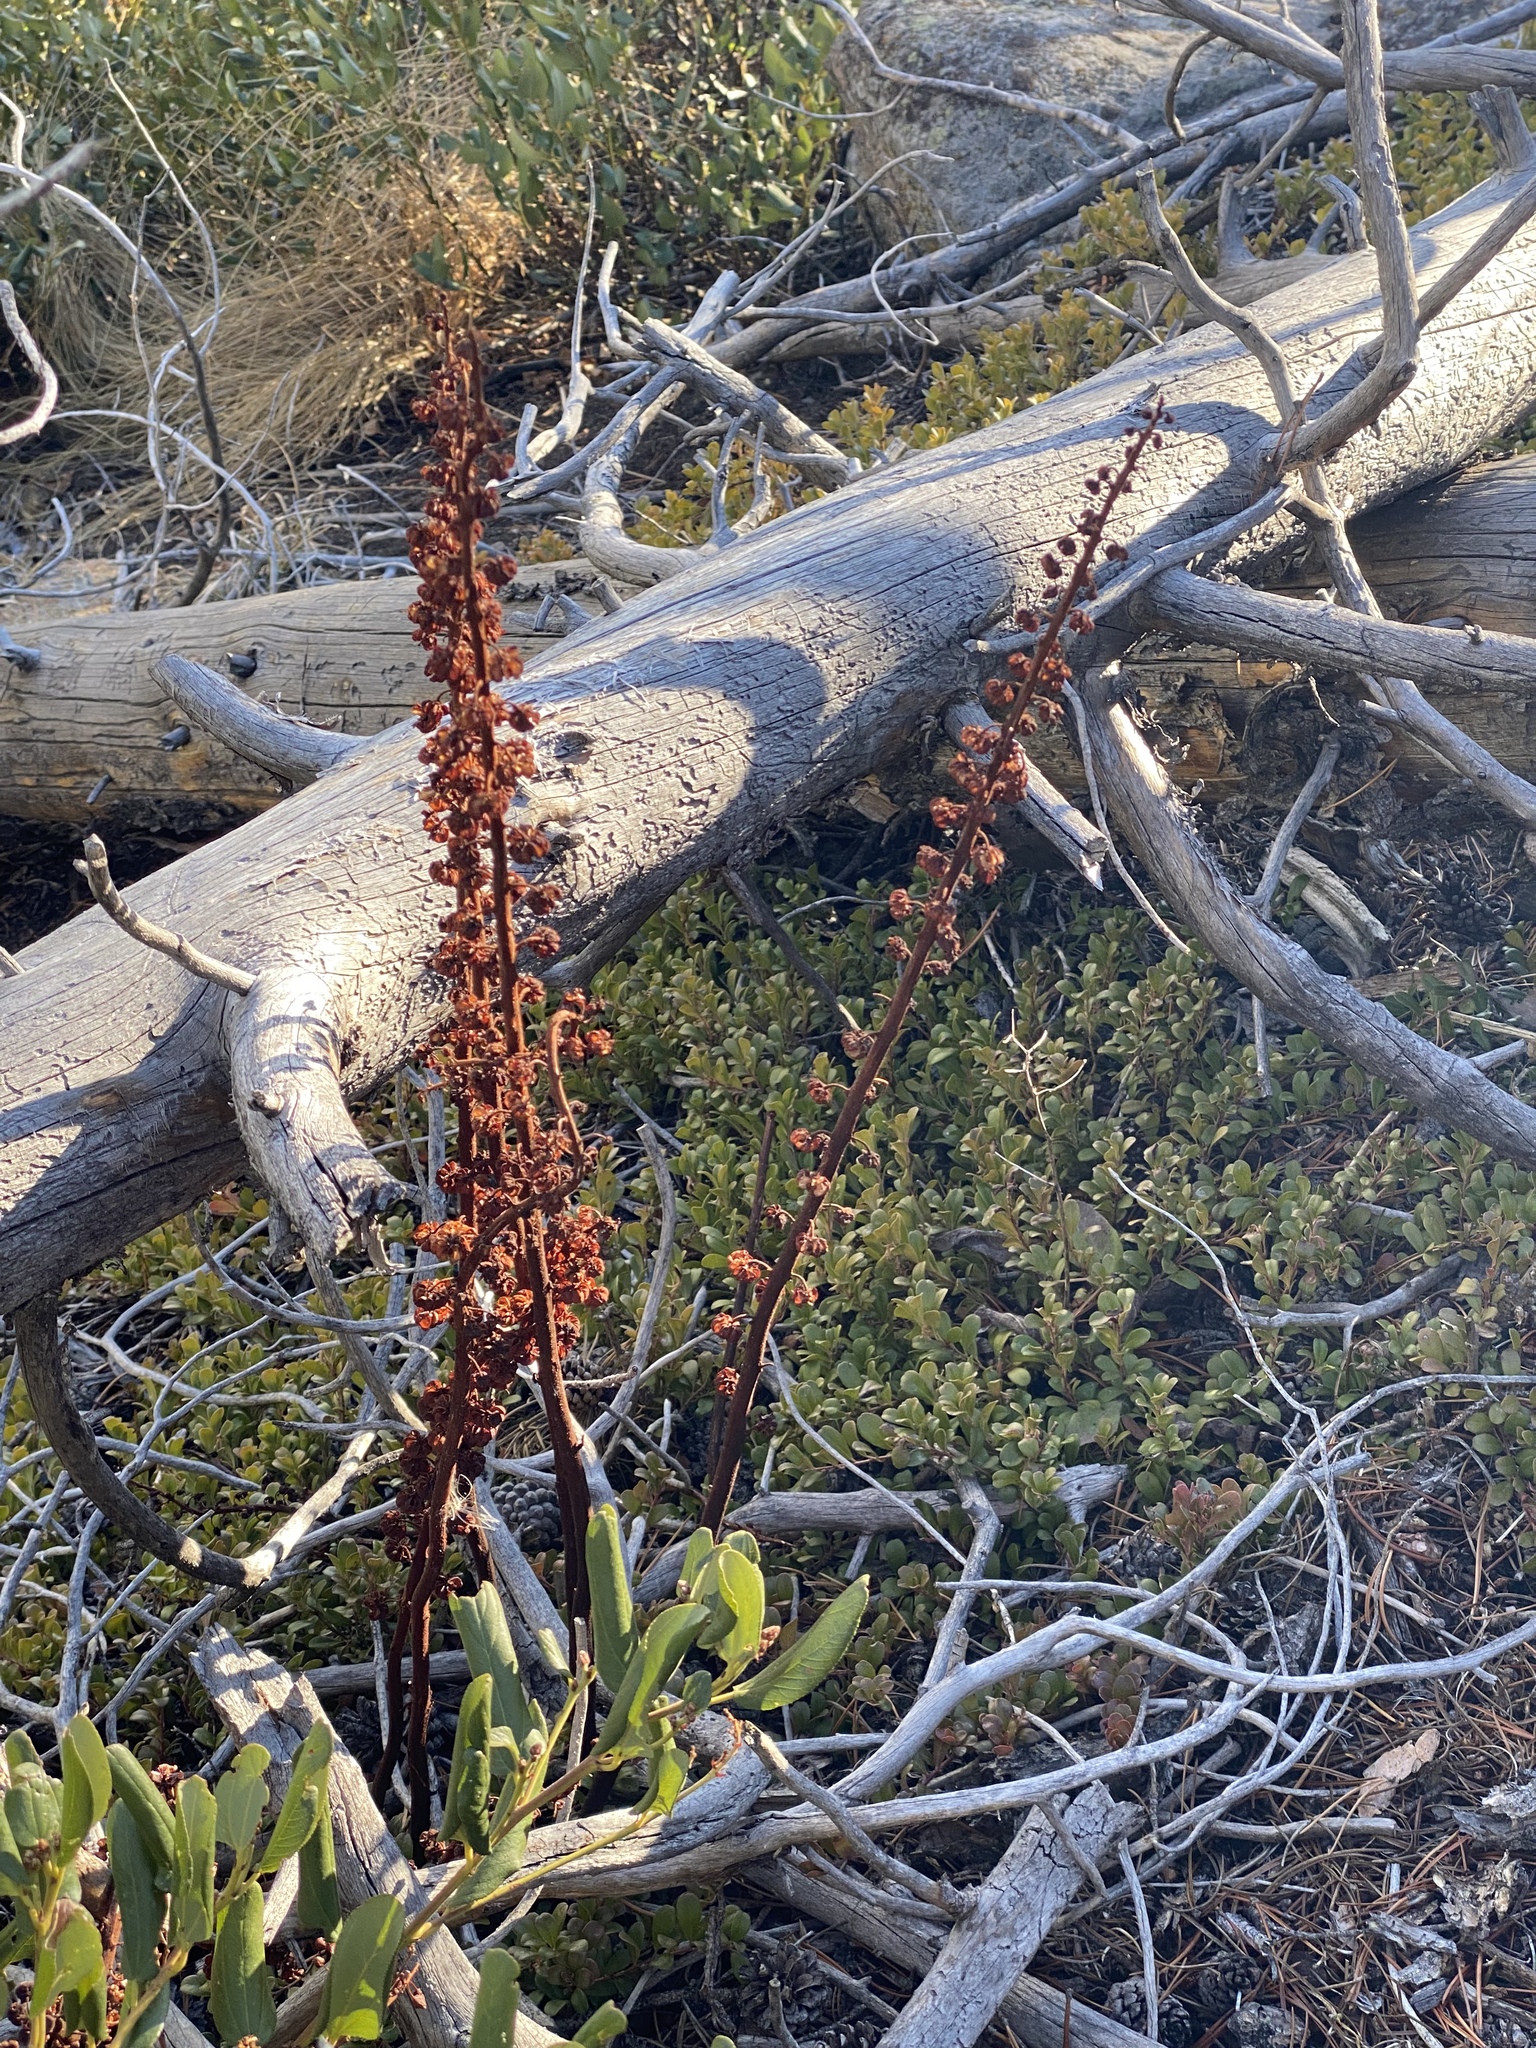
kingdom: Plantae
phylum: Tracheophyta
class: Magnoliopsida
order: Ericales
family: Ericaceae
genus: Pterospora
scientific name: Pterospora andromedea
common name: Giant bird's-nest
